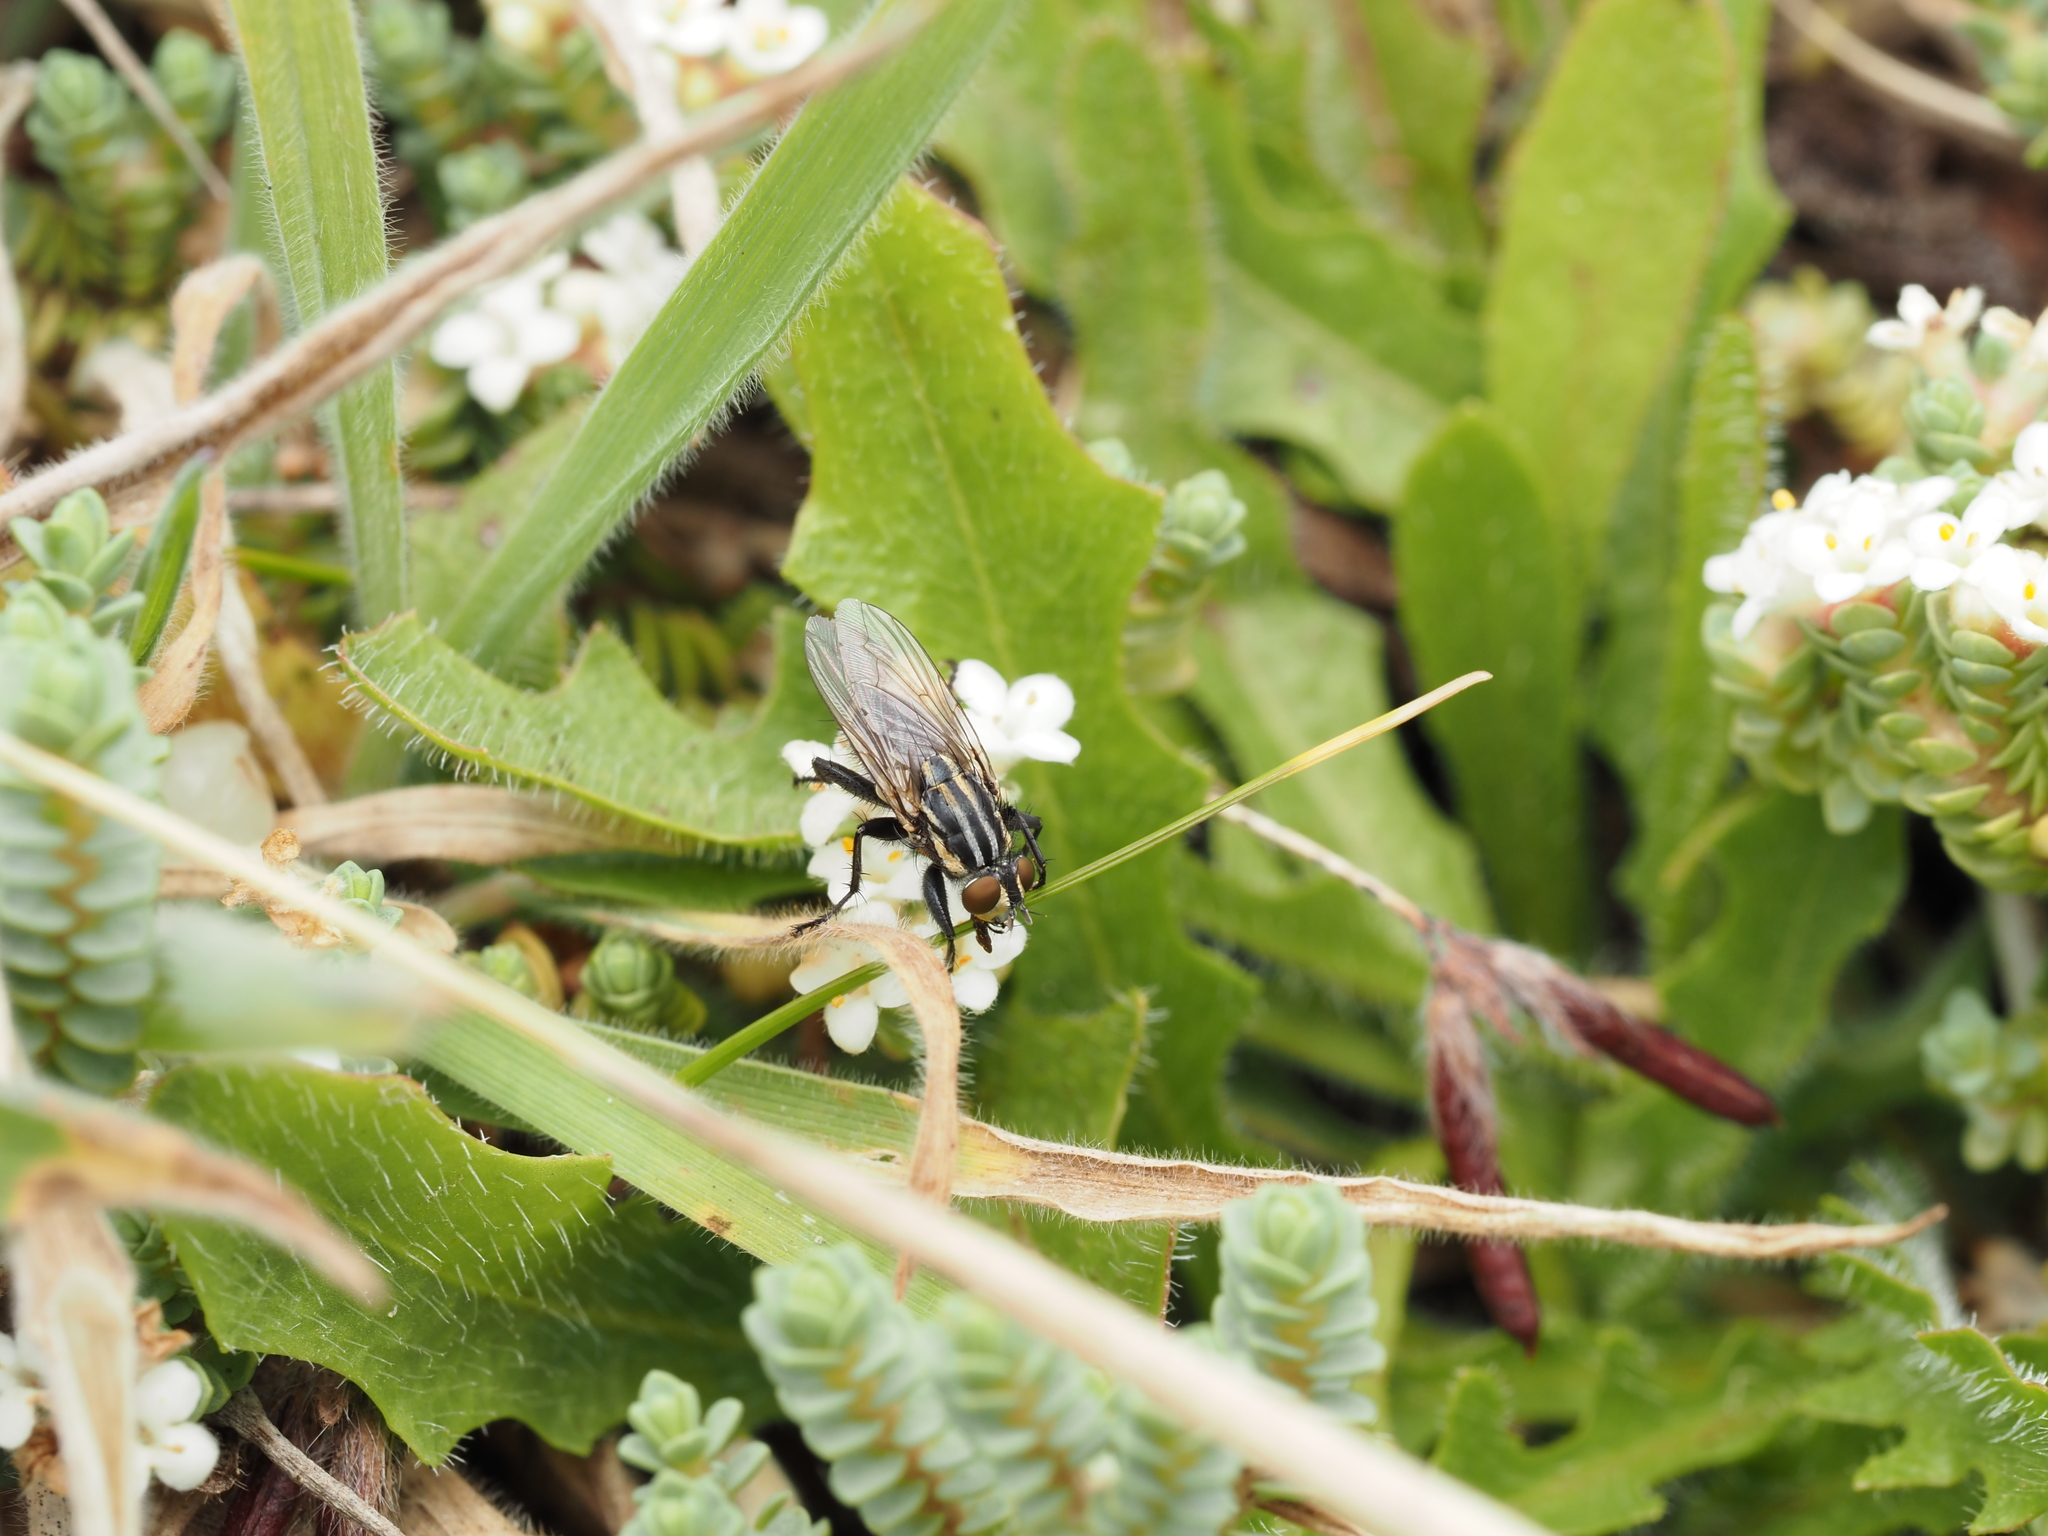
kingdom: Animalia
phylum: Arthropoda
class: Insecta
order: Diptera
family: Sarcophagidae
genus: Oxysarcodexia
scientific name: Oxysarcodexia varia
